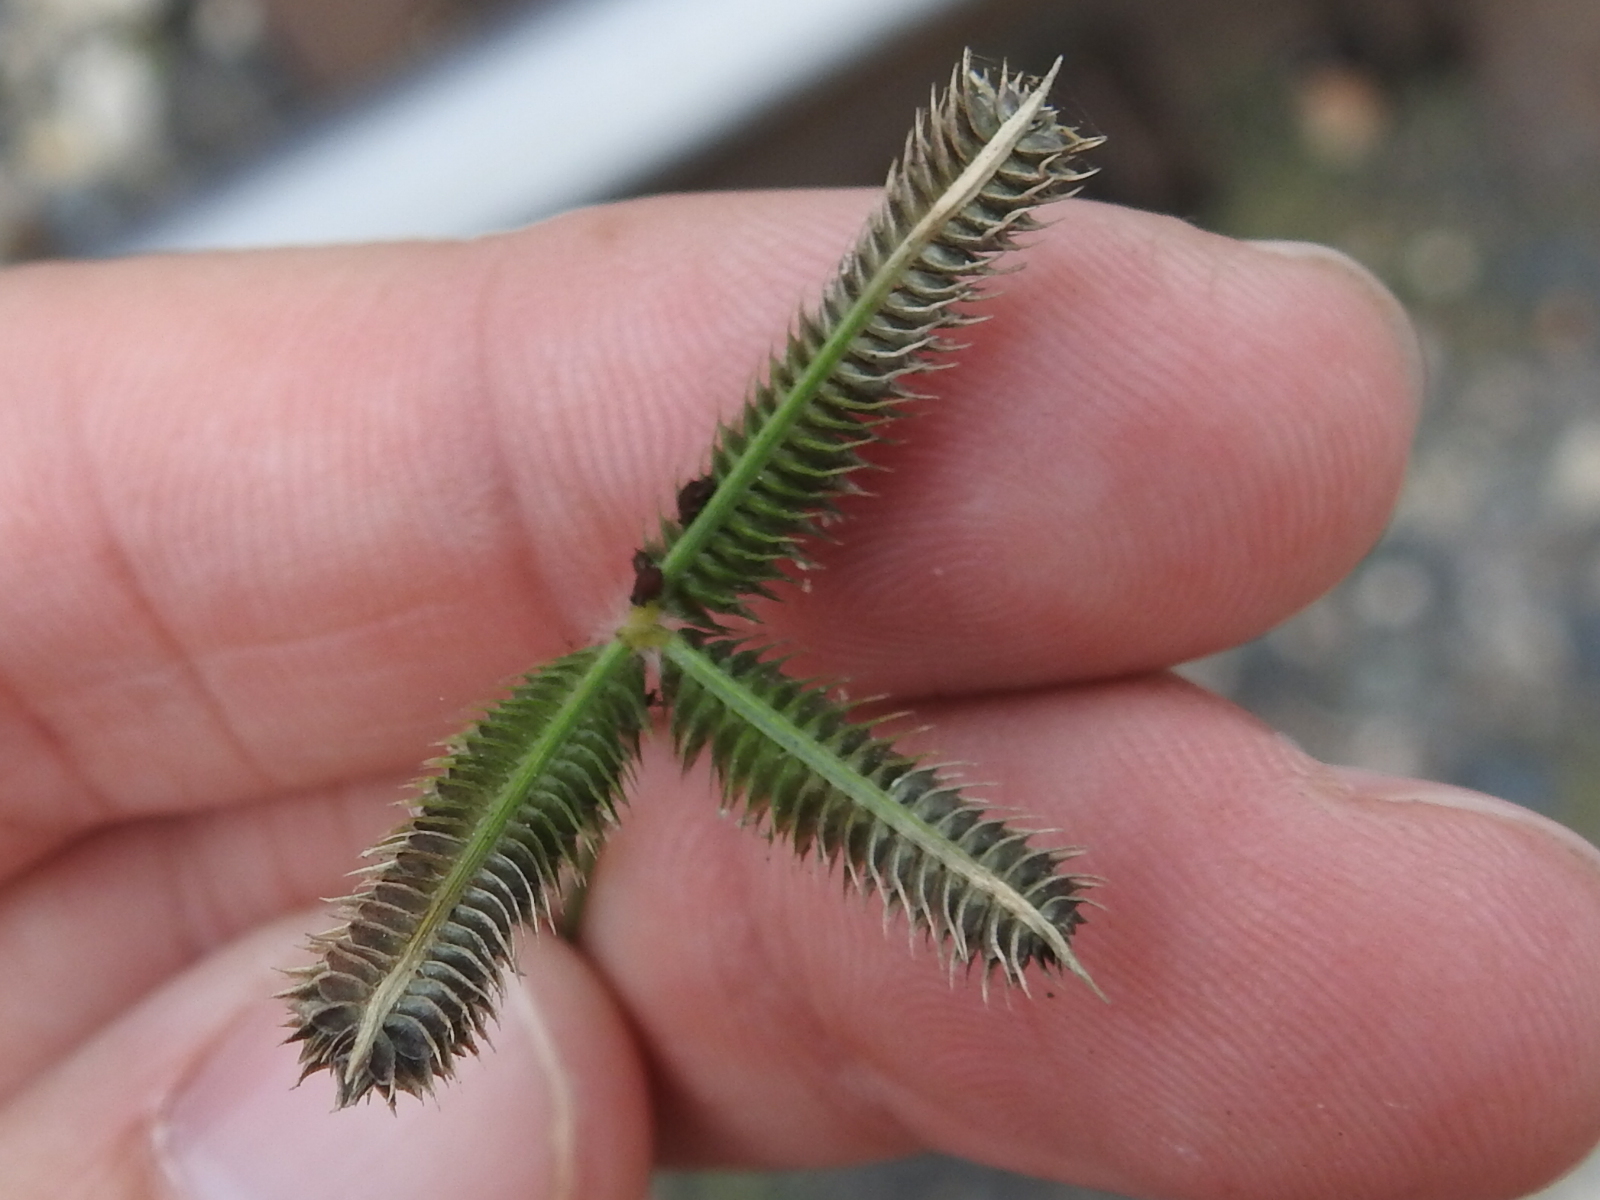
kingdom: Plantae
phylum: Tracheophyta
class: Liliopsida
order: Poales
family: Poaceae
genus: Dactyloctenium
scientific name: Dactyloctenium aegyptium
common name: Egyptian grass
